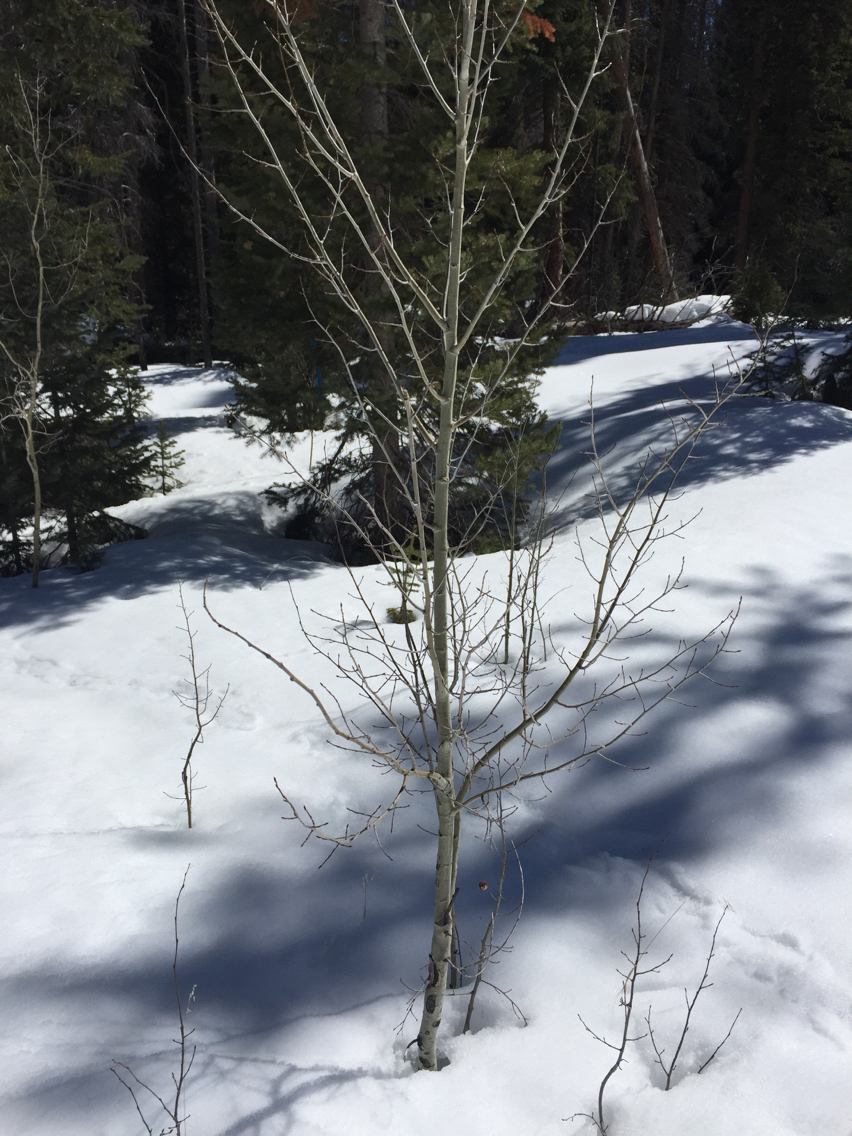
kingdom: Plantae
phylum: Tracheophyta
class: Magnoliopsida
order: Malpighiales
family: Salicaceae
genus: Populus
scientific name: Populus tremuloides
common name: Quaking aspen
